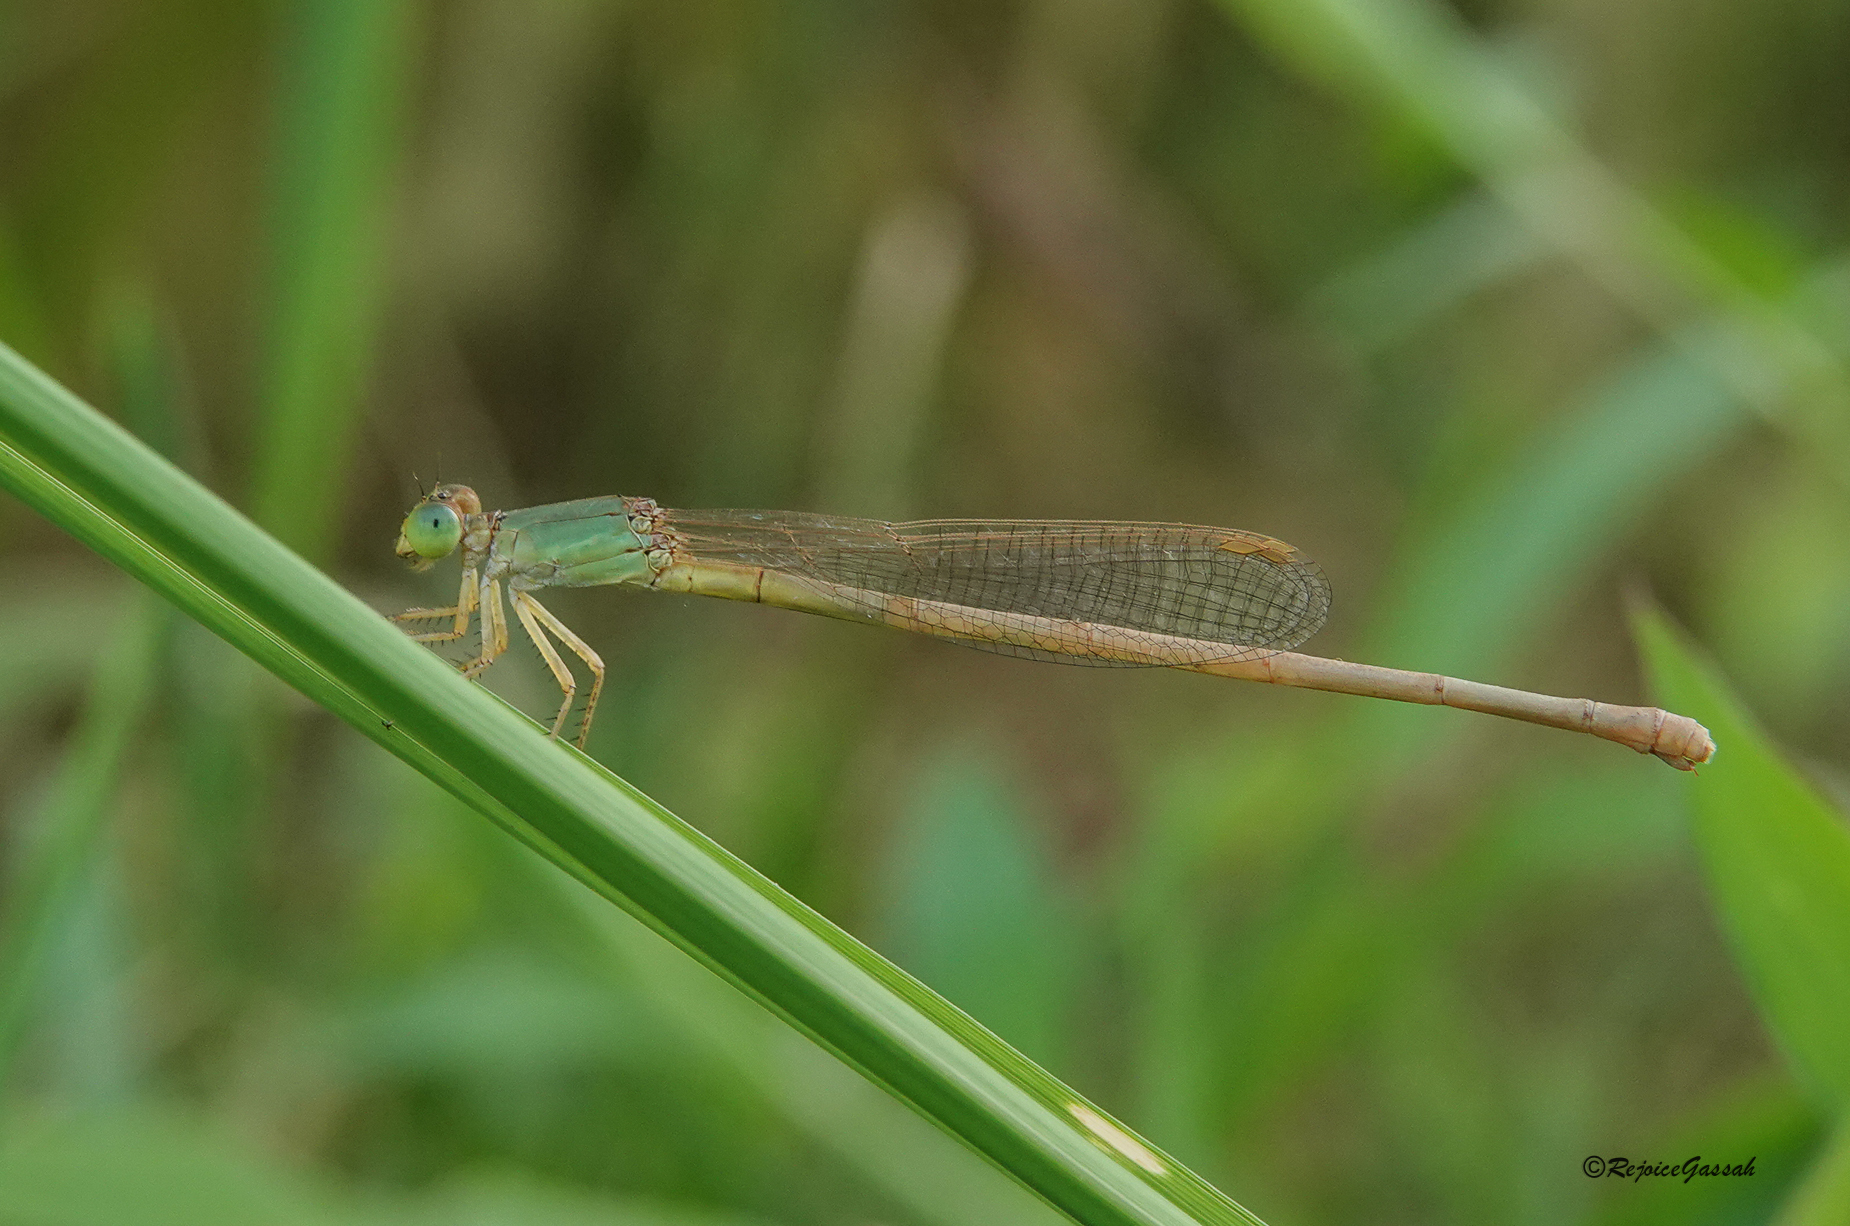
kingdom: Animalia
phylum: Arthropoda
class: Insecta
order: Odonata
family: Coenagrionidae
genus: Ceriagrion
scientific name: Ceriagrion olivaceum
